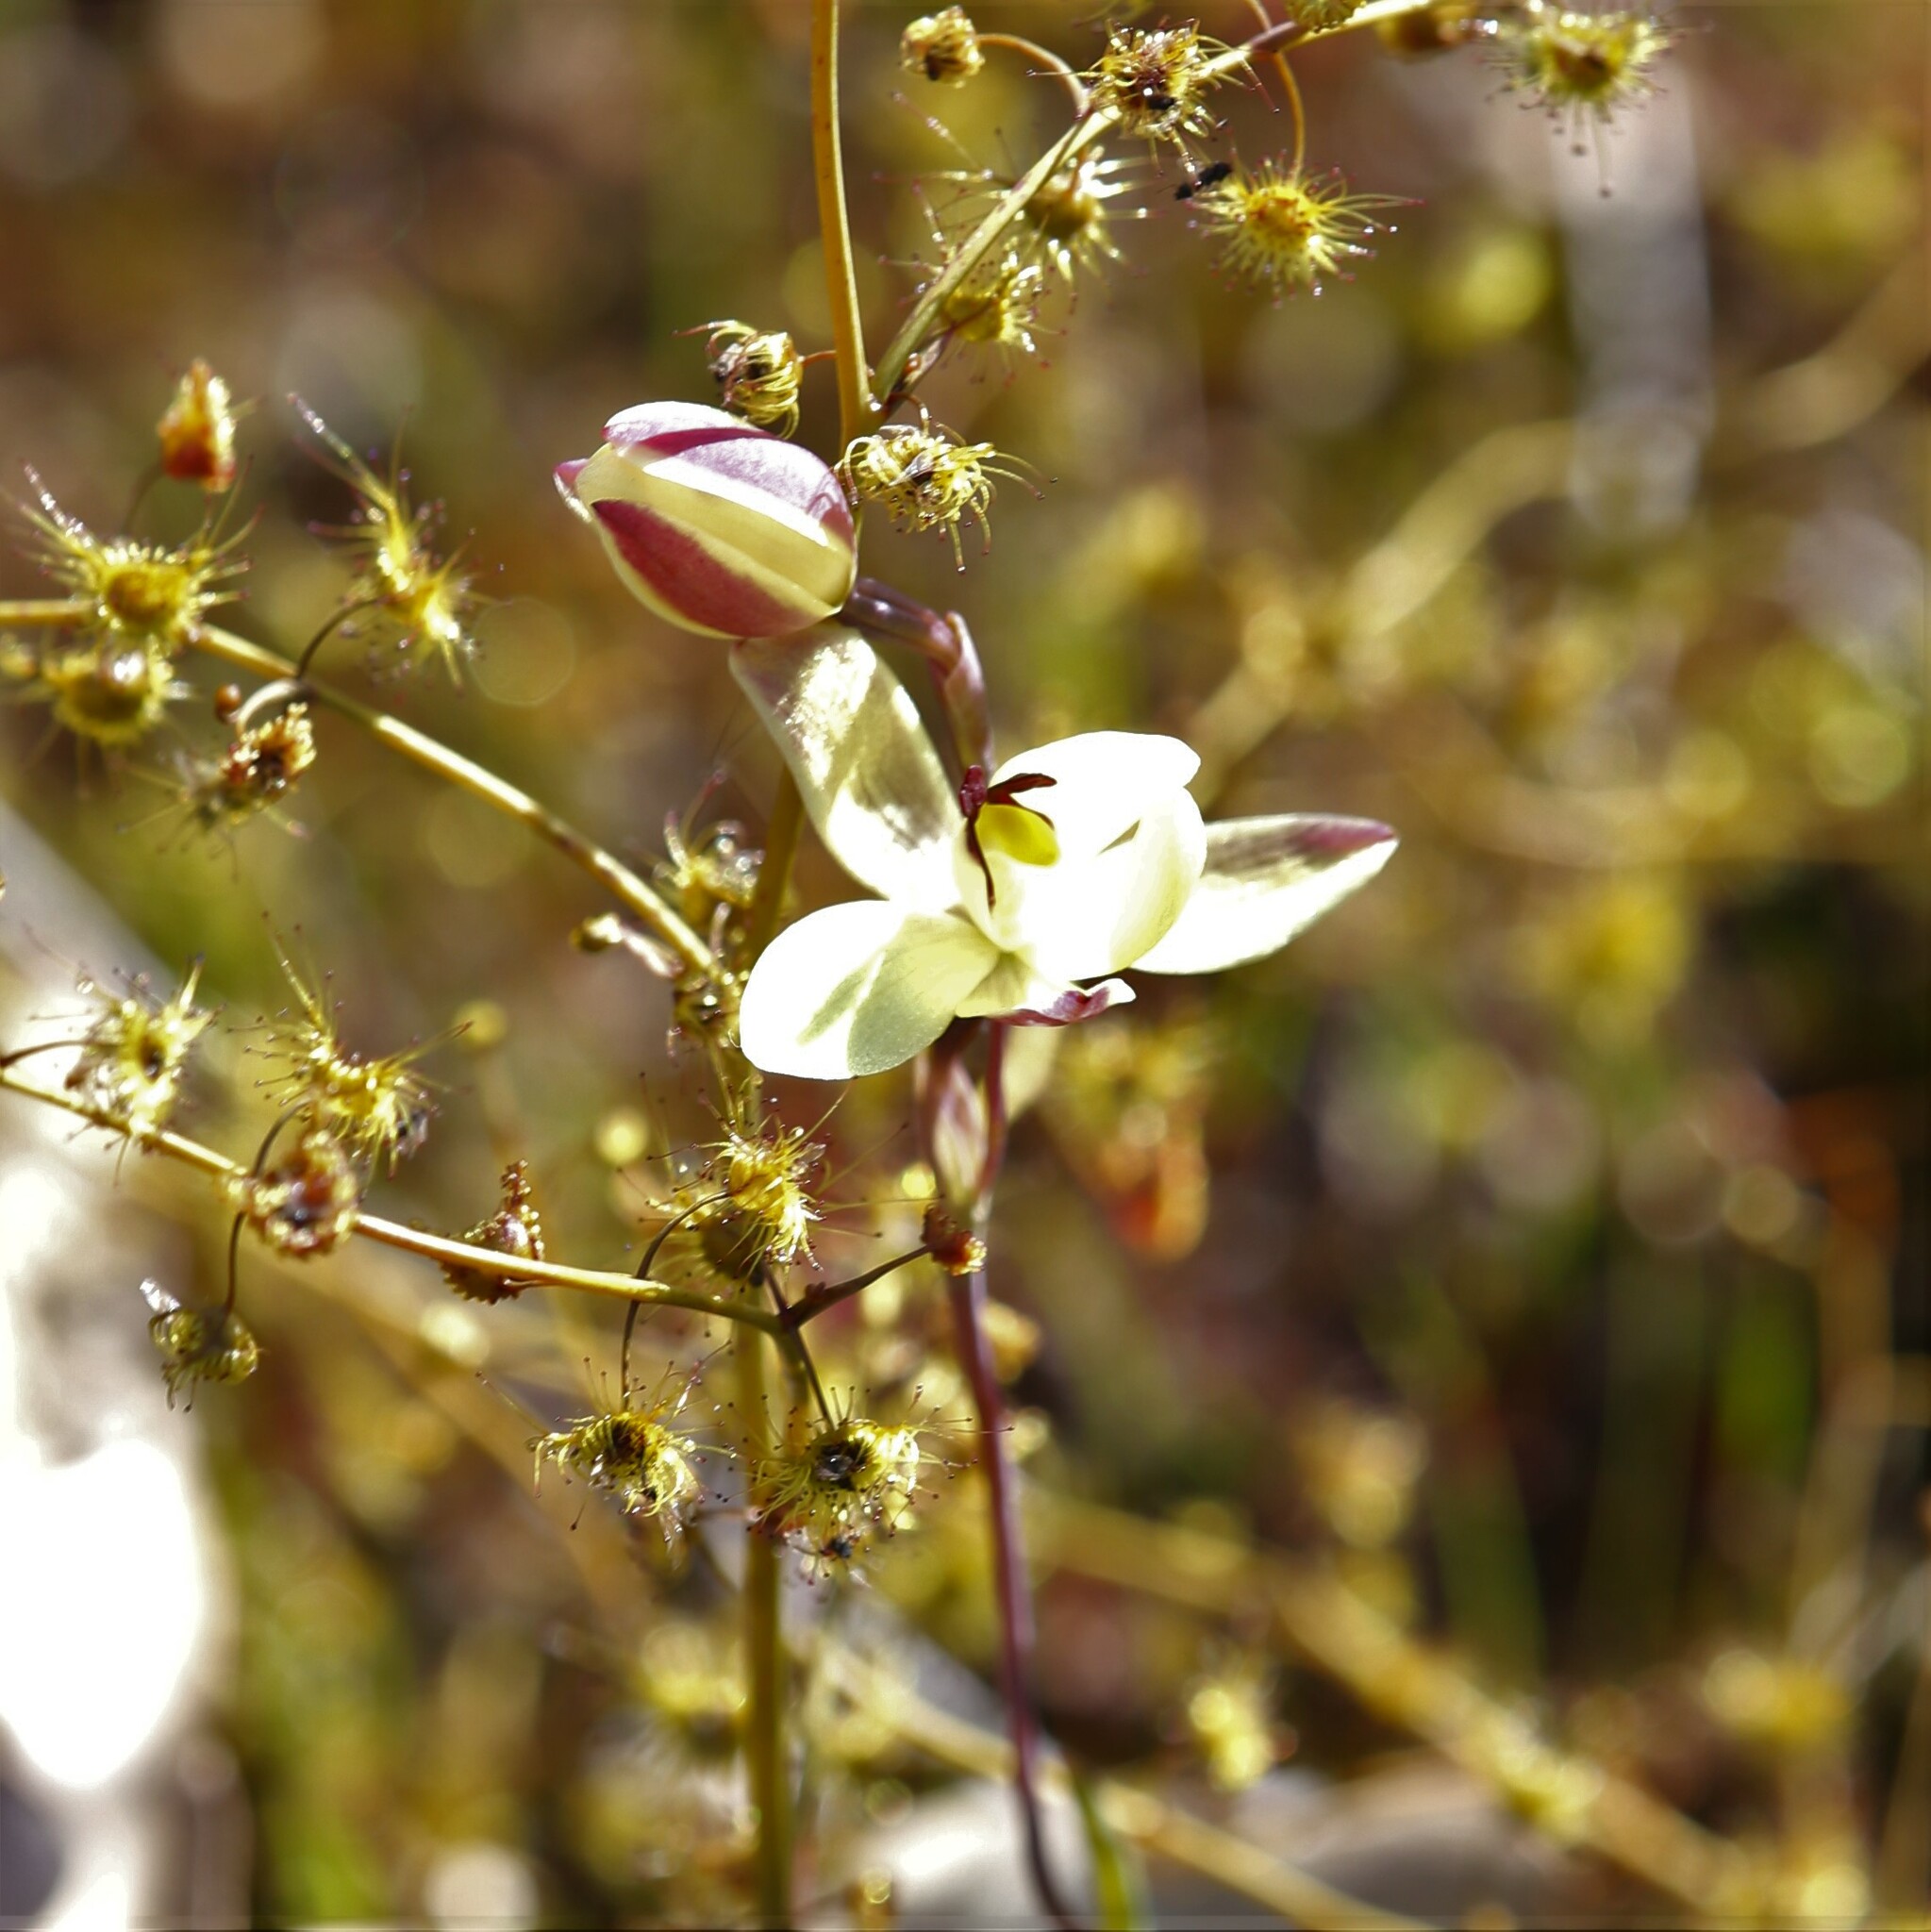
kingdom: Plantae
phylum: Tracheophyta
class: Liliopsida
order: Asparagales
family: Orchidaceae
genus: Thelymitra
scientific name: Thelymitra antennifera
